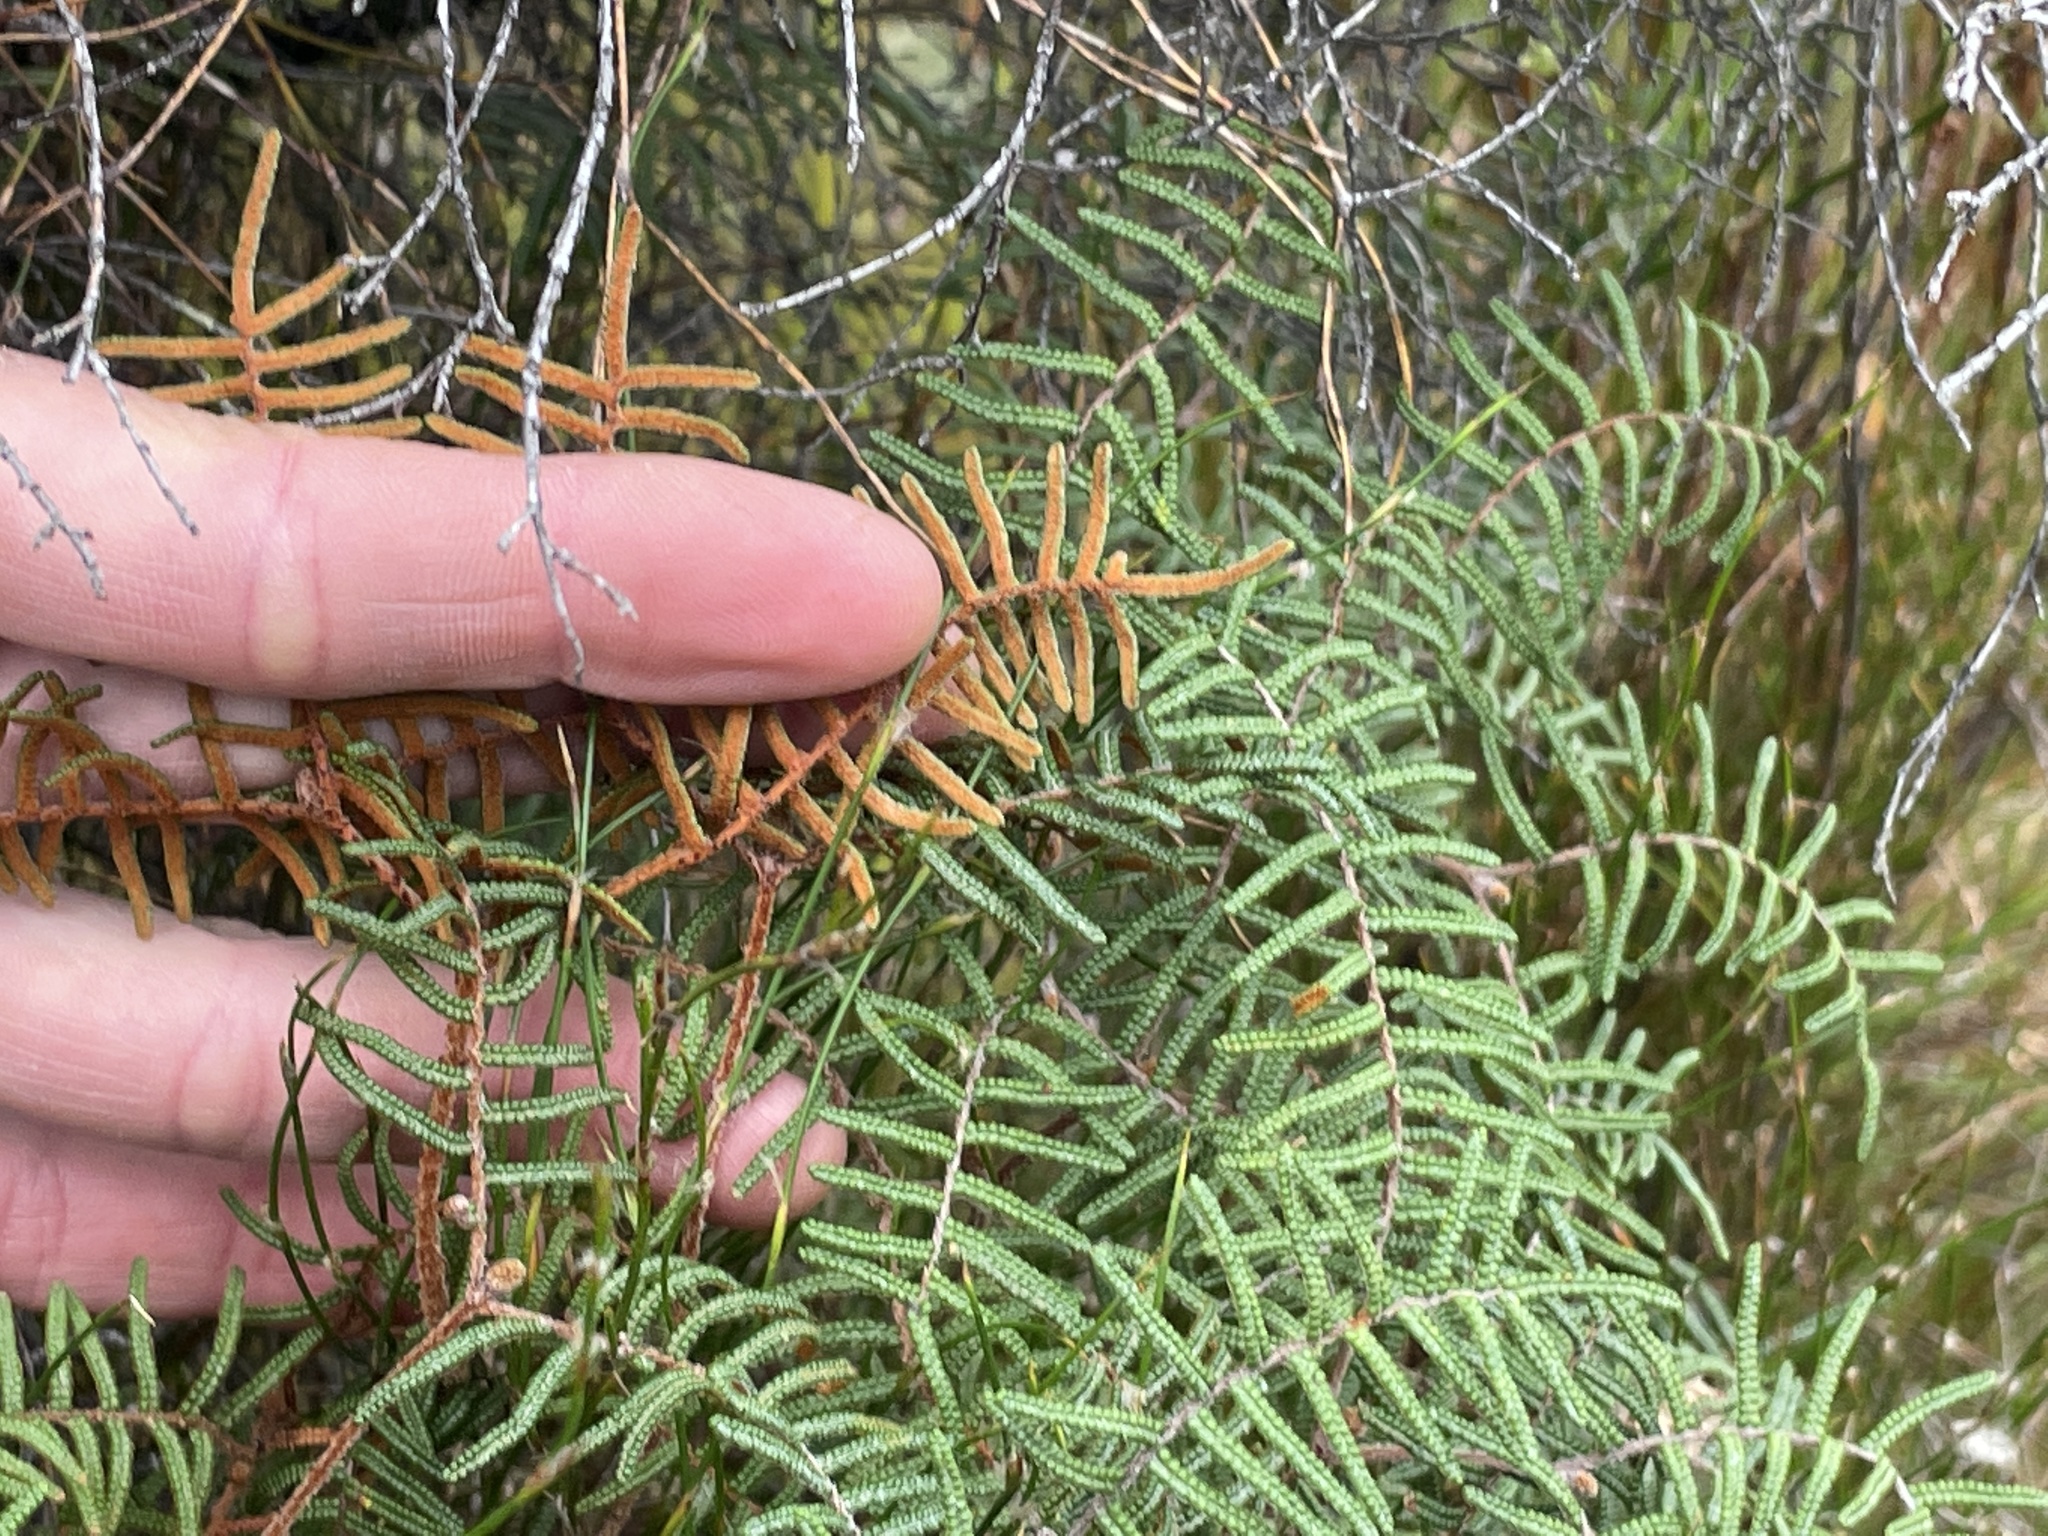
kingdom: Plantae
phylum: Tracheophyta
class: Polypodiopsida
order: Gleicheniales
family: Gleicheniaceae
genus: Gleichenia
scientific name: Gleichenia alpina
